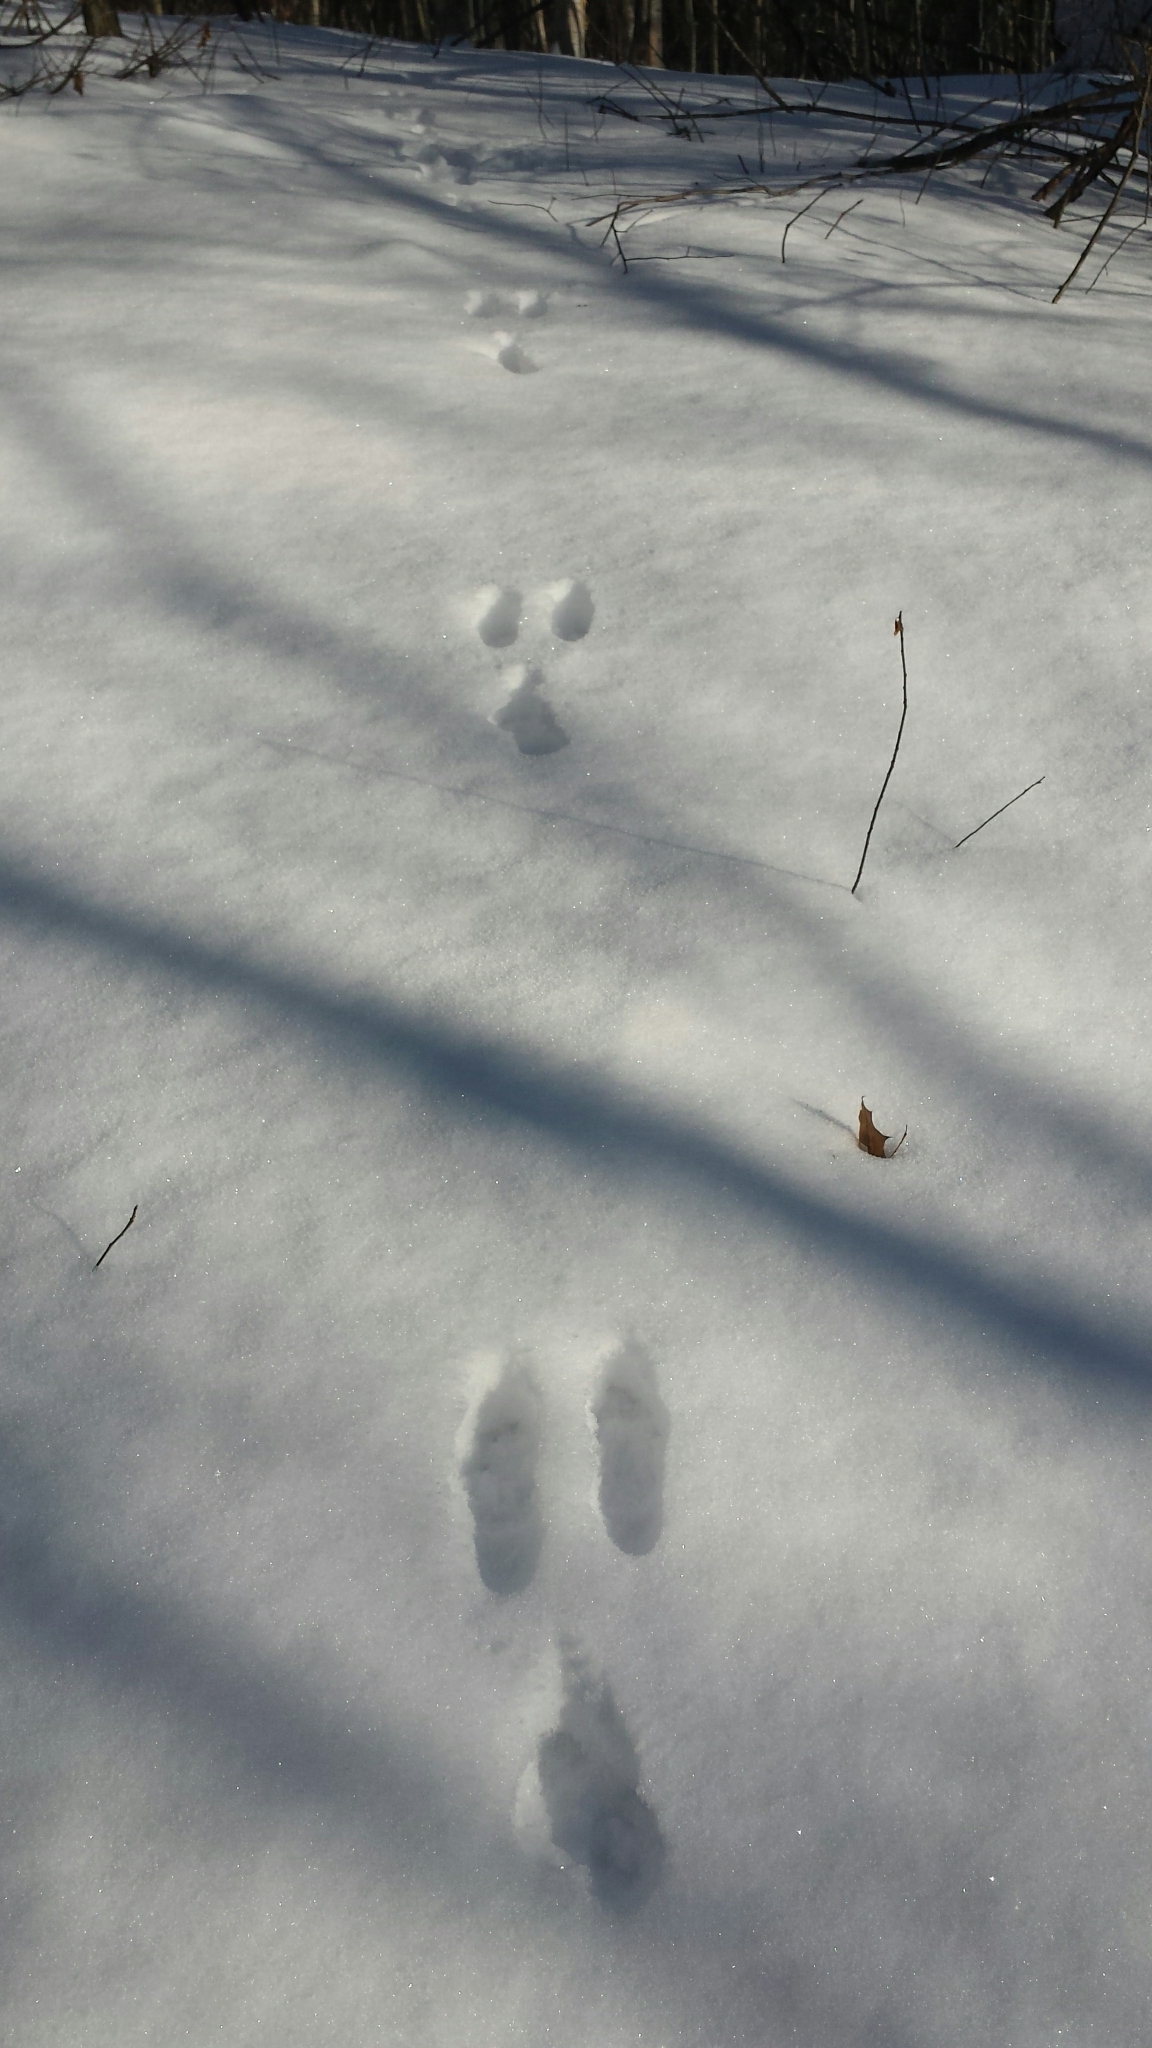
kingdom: Animalia
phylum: Chordata
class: Mammalia
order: Lagomorpha
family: Leporidae
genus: Lepus
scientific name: Lepus americanus
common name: Snowshoe hare
